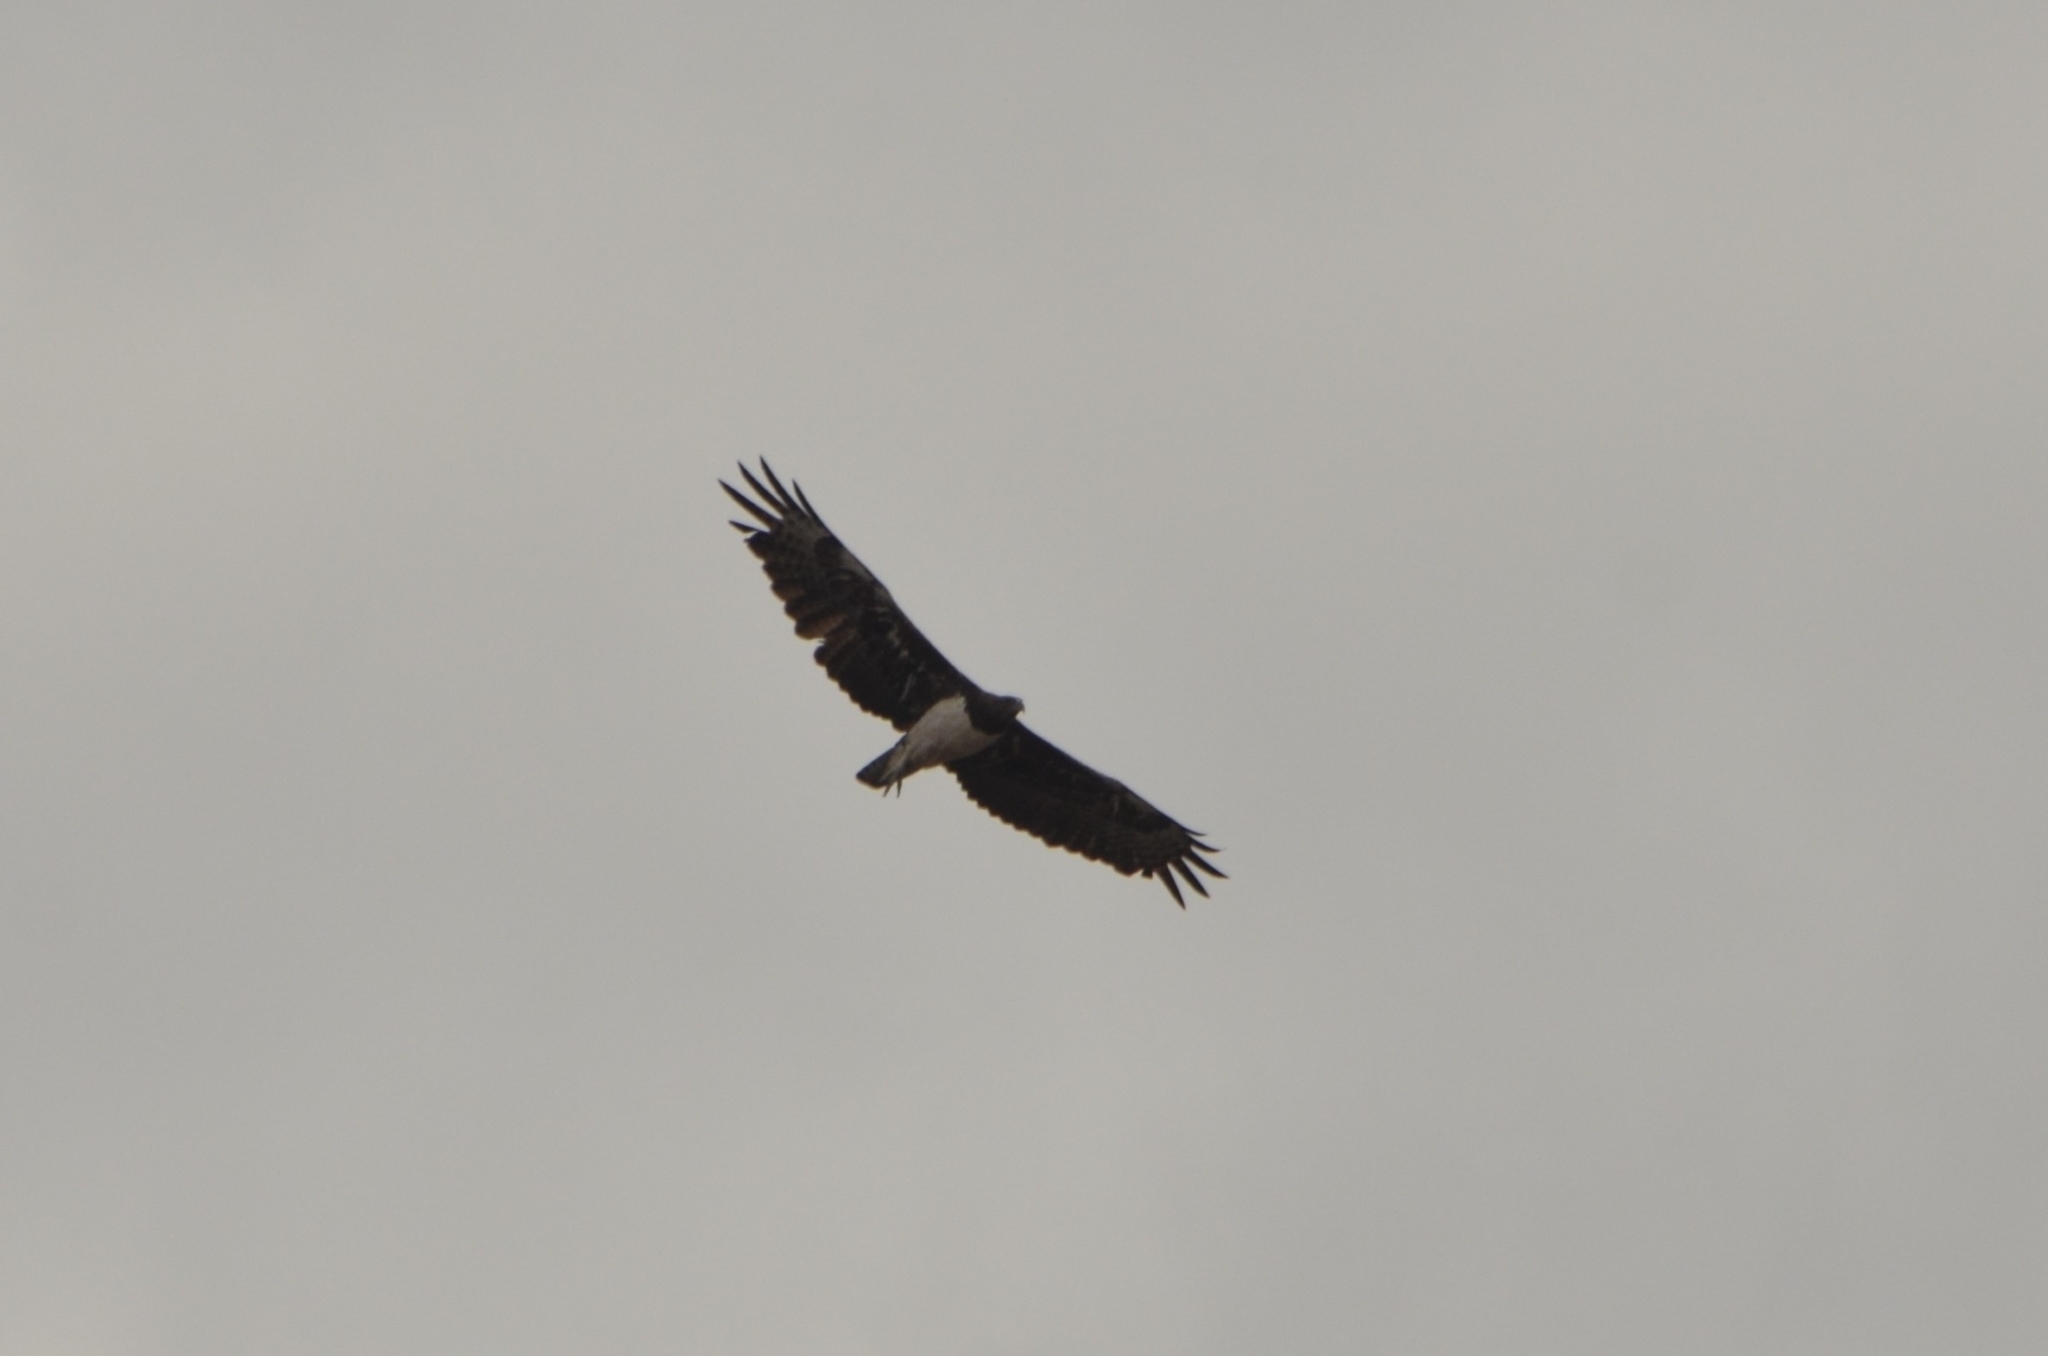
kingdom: Animalia
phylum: Chordata
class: Aves
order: Accipitriformes
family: Accipitridae
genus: Polemaetus
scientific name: Polemaetus bellicosus
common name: Martial eagle
